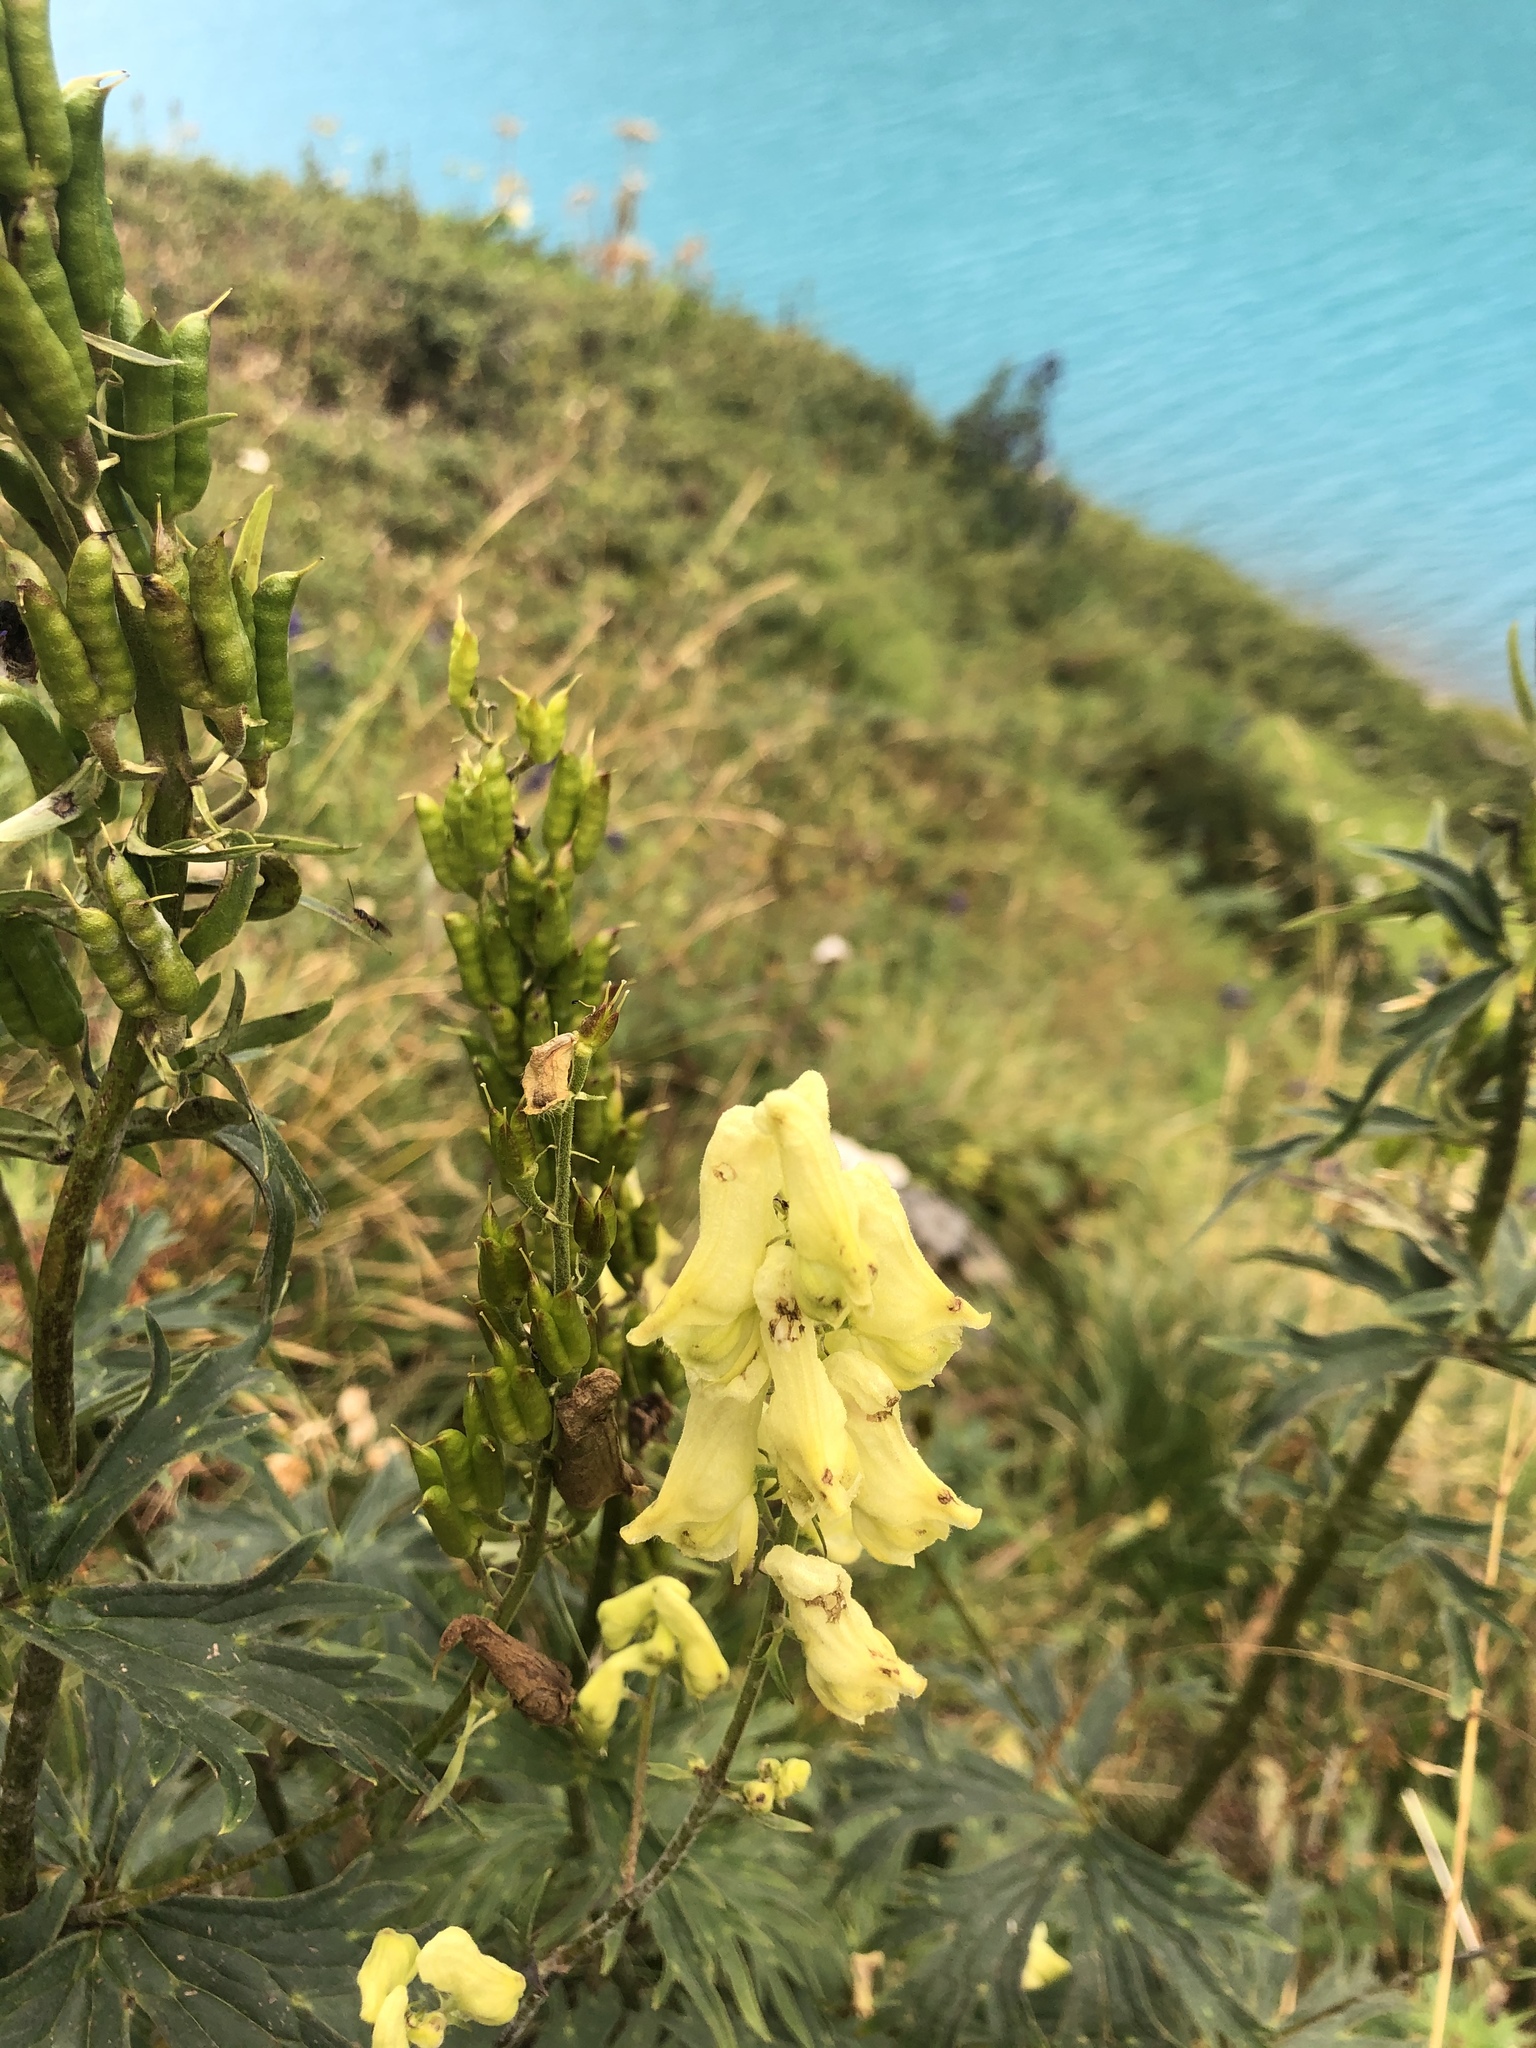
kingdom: Plantae
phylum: Tracheophyta
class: Magnoliopsida
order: Ranunculales
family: Ranunculaceae
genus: Aconitum
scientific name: Aconitum lycoctonum
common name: Wolf's-bane
